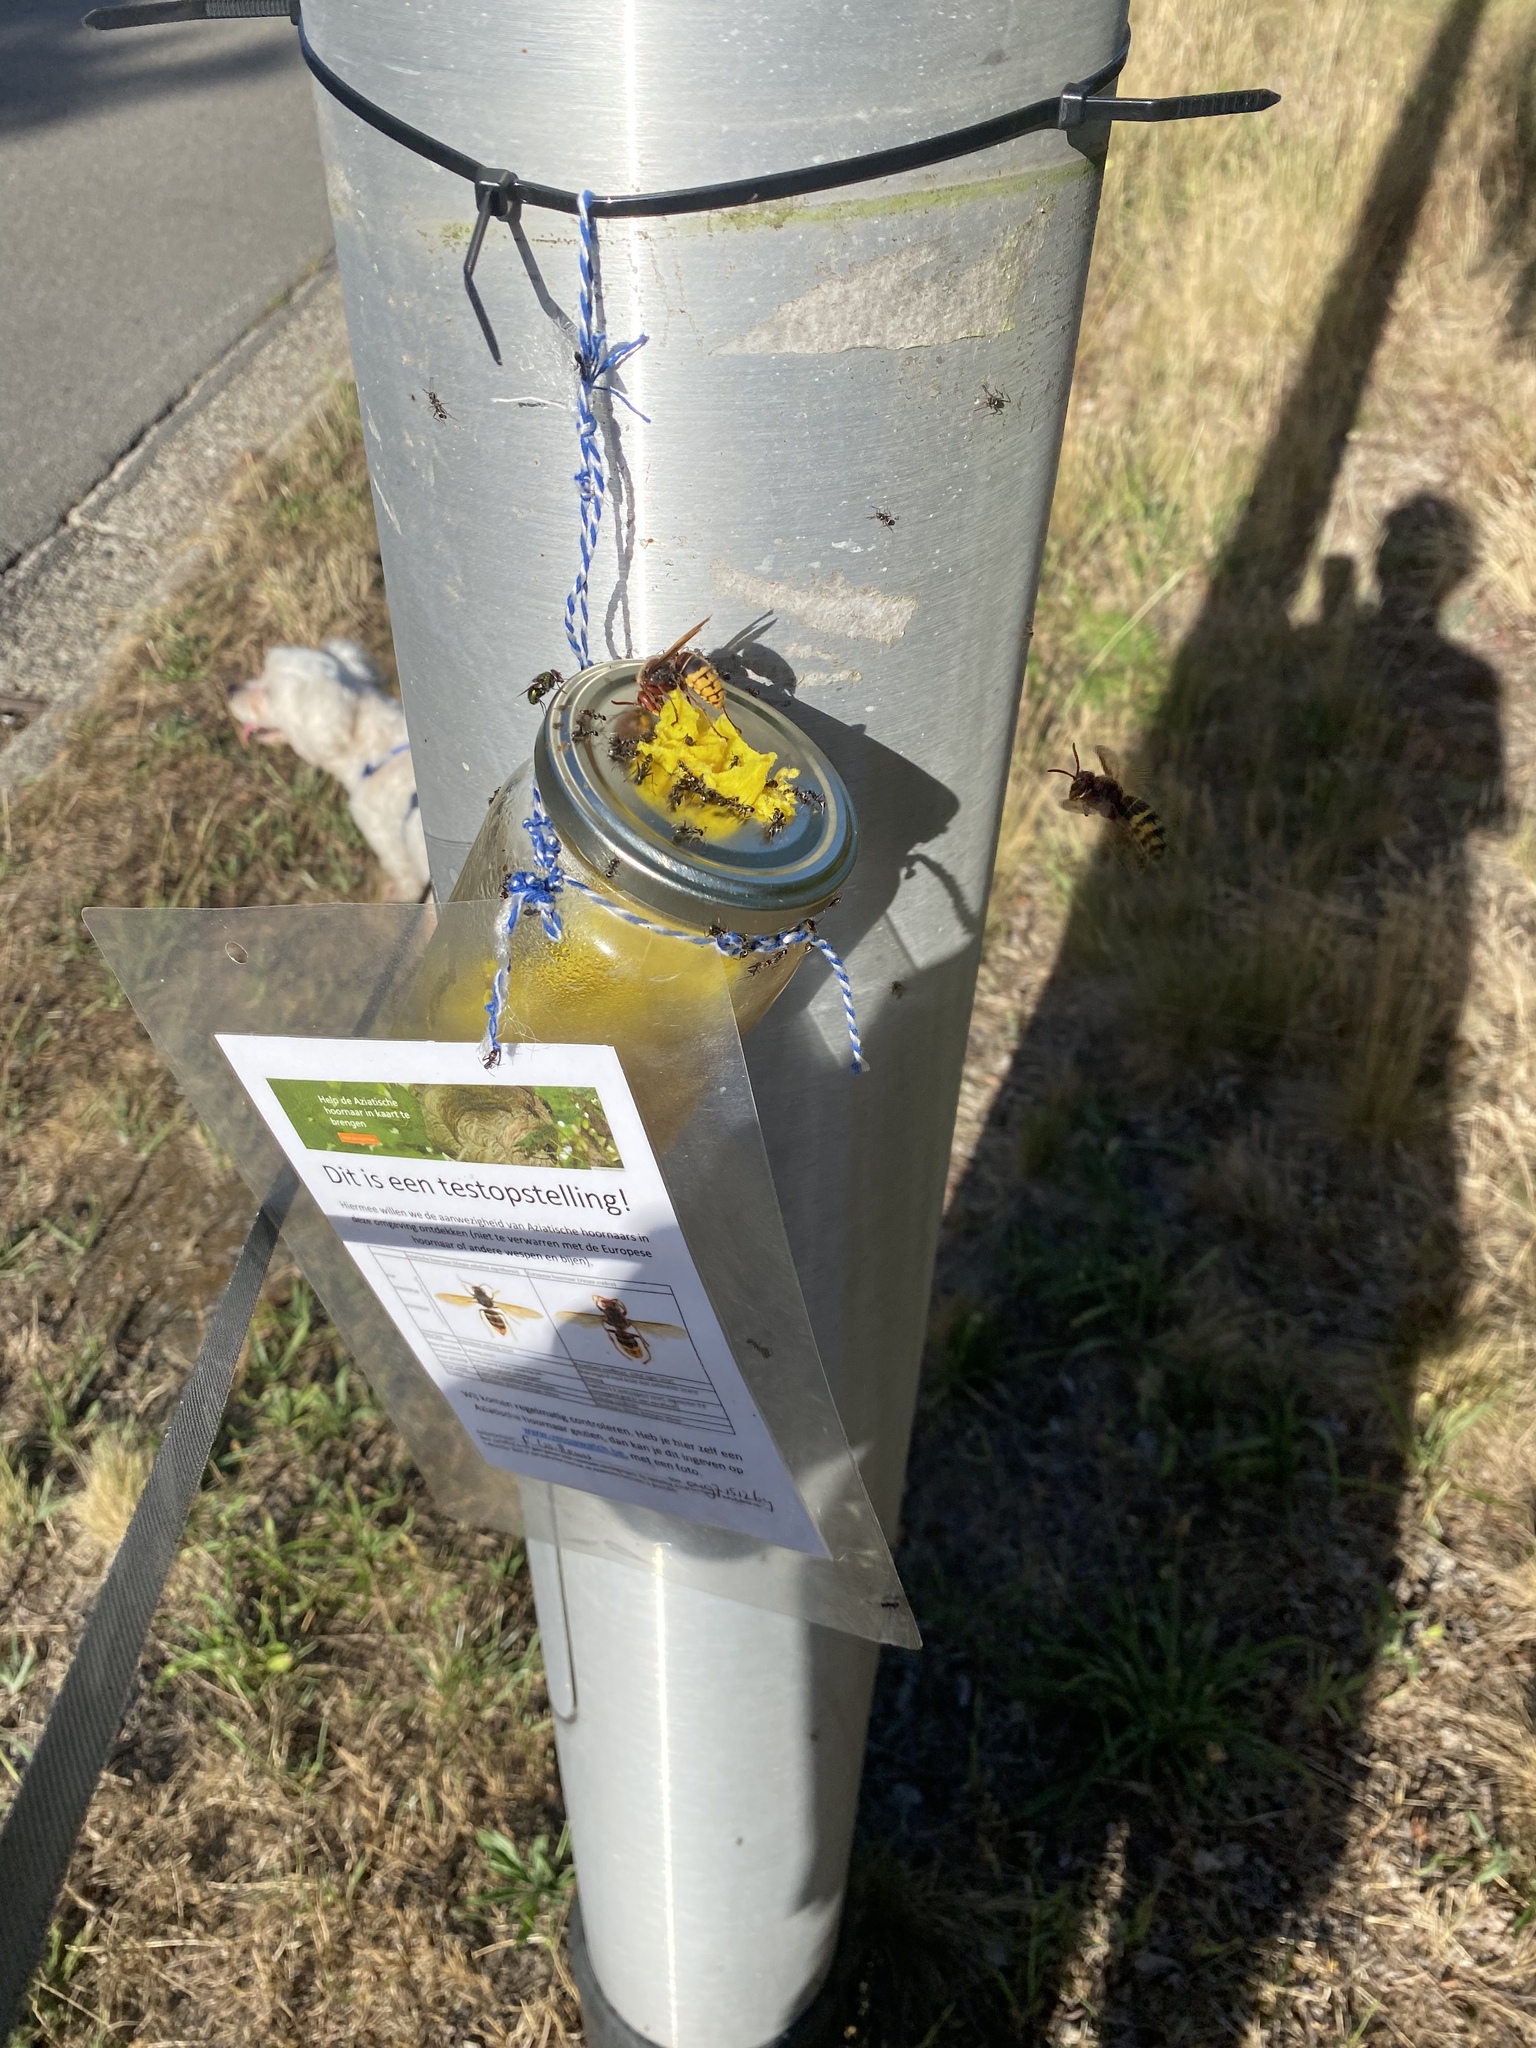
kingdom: Animalia
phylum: Arthropoda
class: Insecta
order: Hymenoptera
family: Vespidae
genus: Vespa
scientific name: Vespa crabro
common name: Hornet
